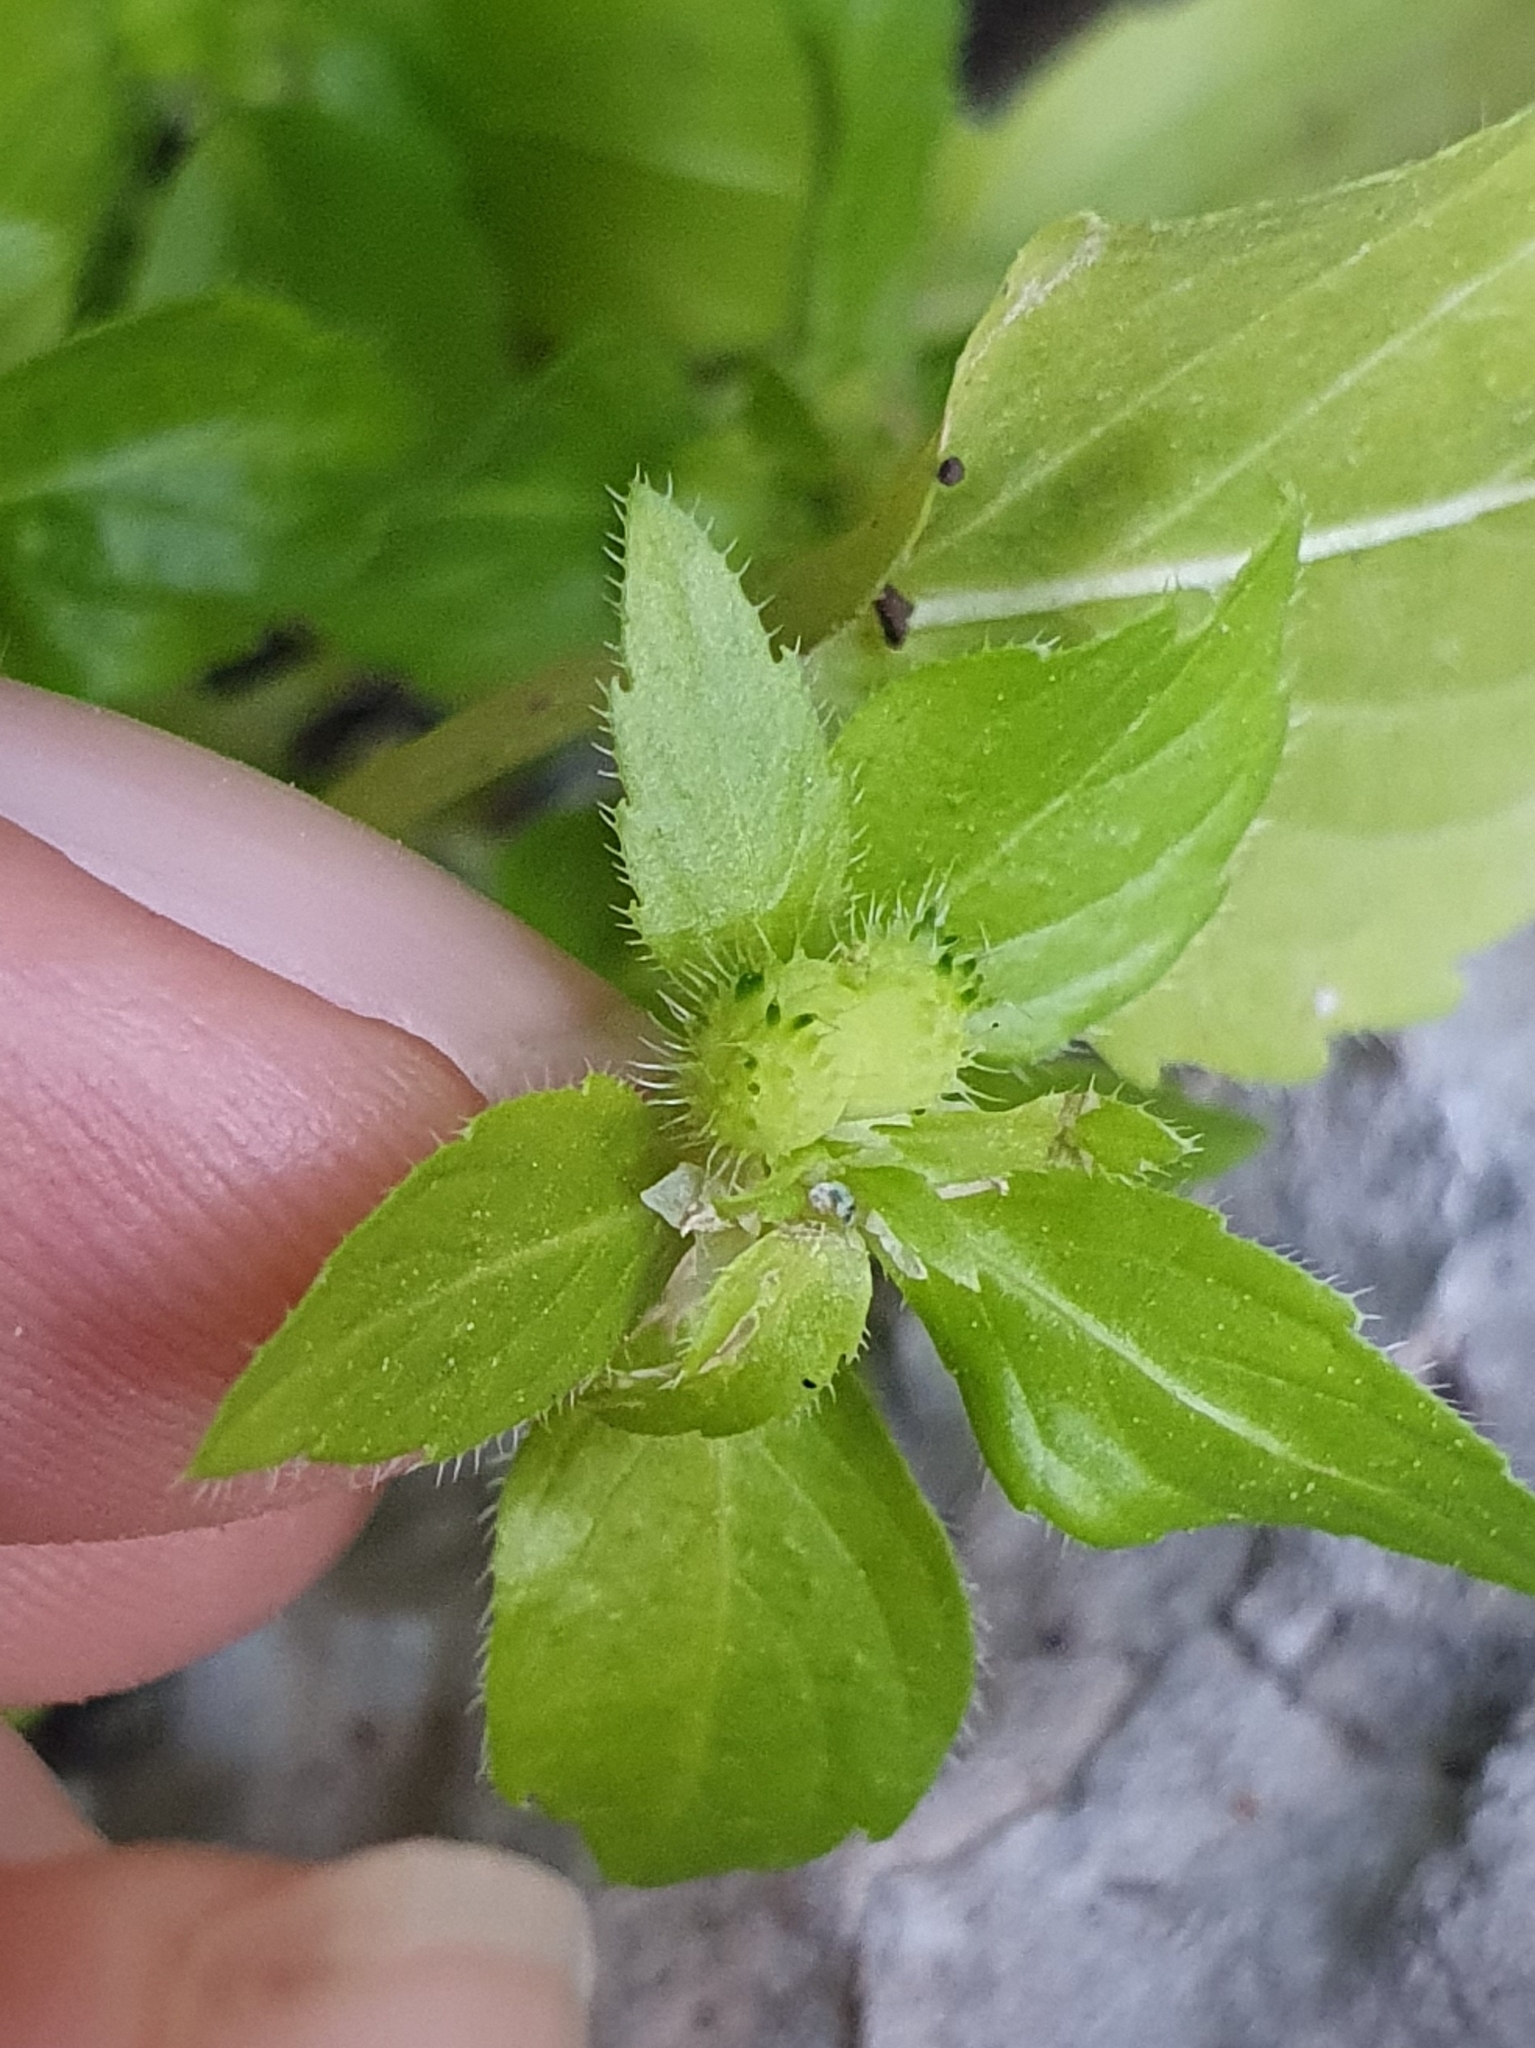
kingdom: Plantae
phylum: Tracheophyta
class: Magnoliopsida
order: Malpighiales
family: Euphorbiaceae
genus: Mercurialis
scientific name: Mercurialis annua
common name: Annual mercury
